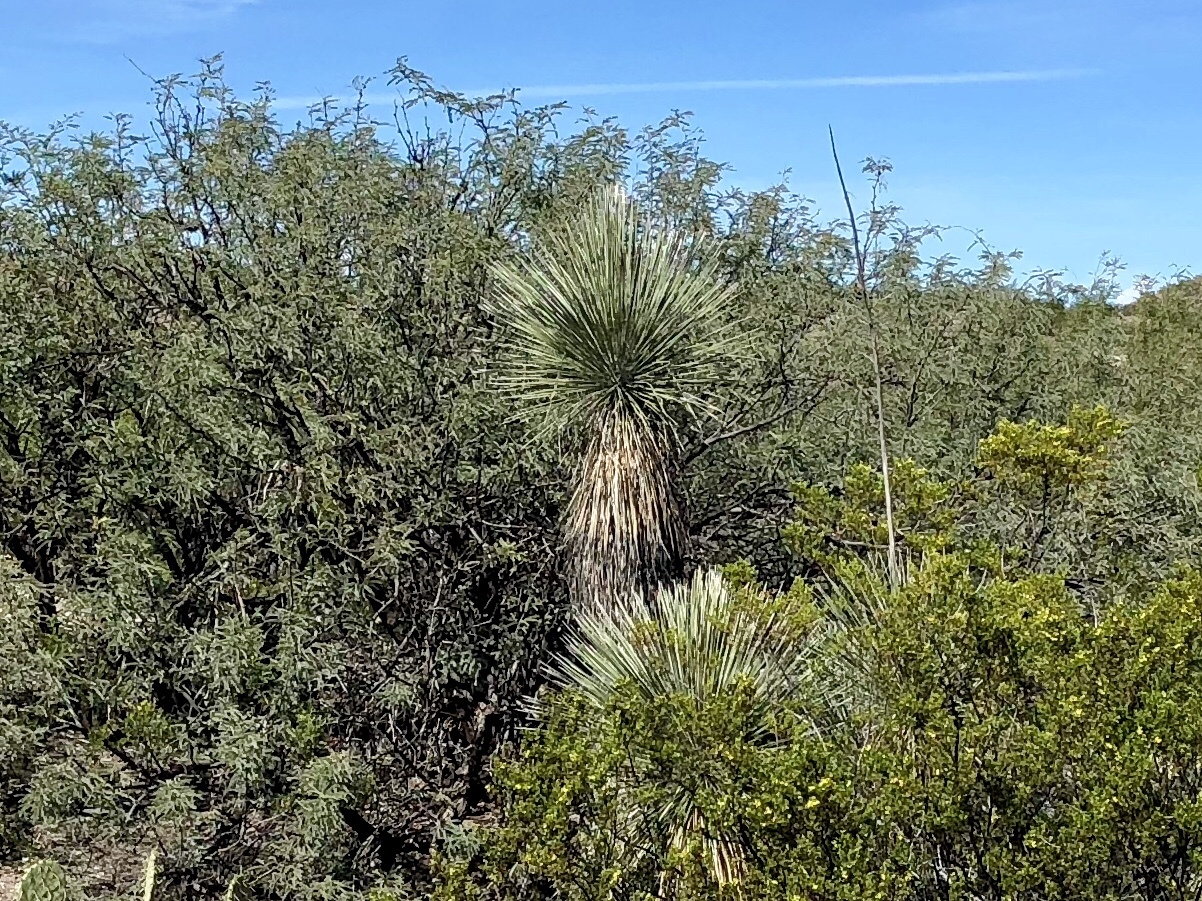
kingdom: Plantae
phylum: Tracheophyta
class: Liliopsida
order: Asparagales
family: Asparagaceae
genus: Yucca
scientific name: Yucca elata
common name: Palmella
